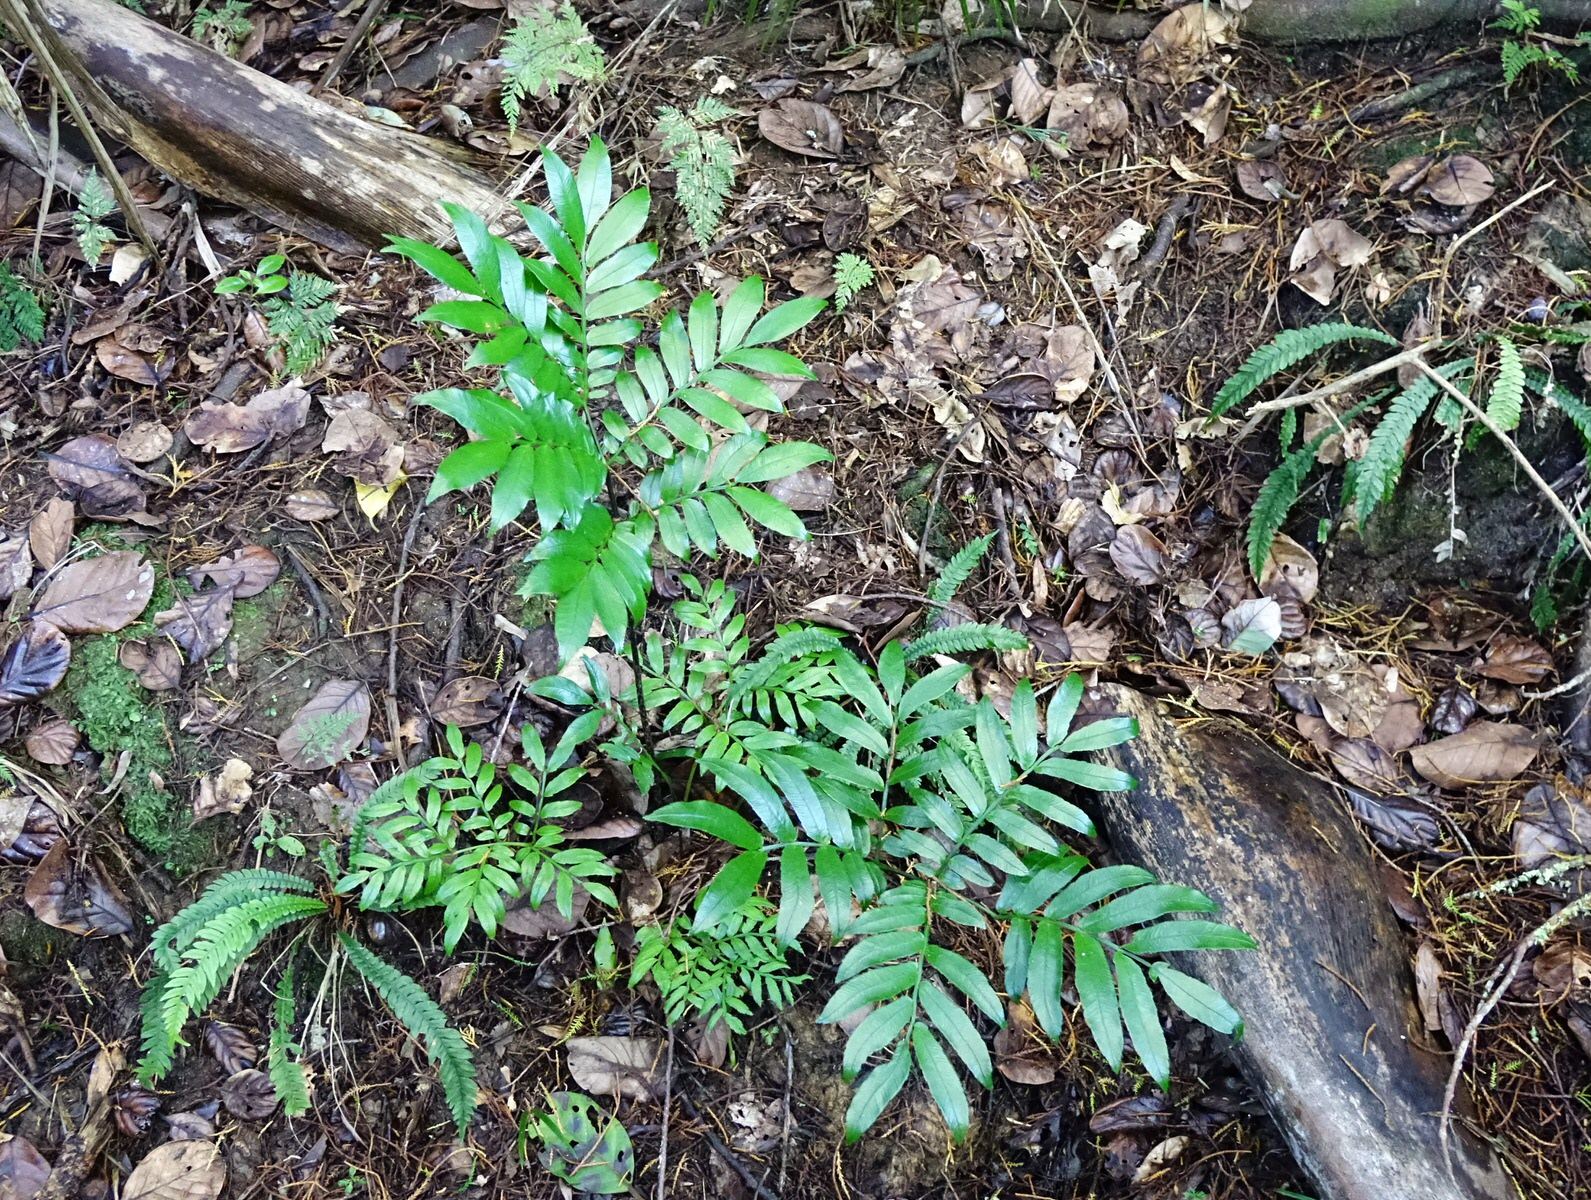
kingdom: Plantae
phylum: Tracheophyta
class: Polypodiopsida
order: Marattiales
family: Marattiaceae
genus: Ptisana
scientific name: Ptisana salicina
